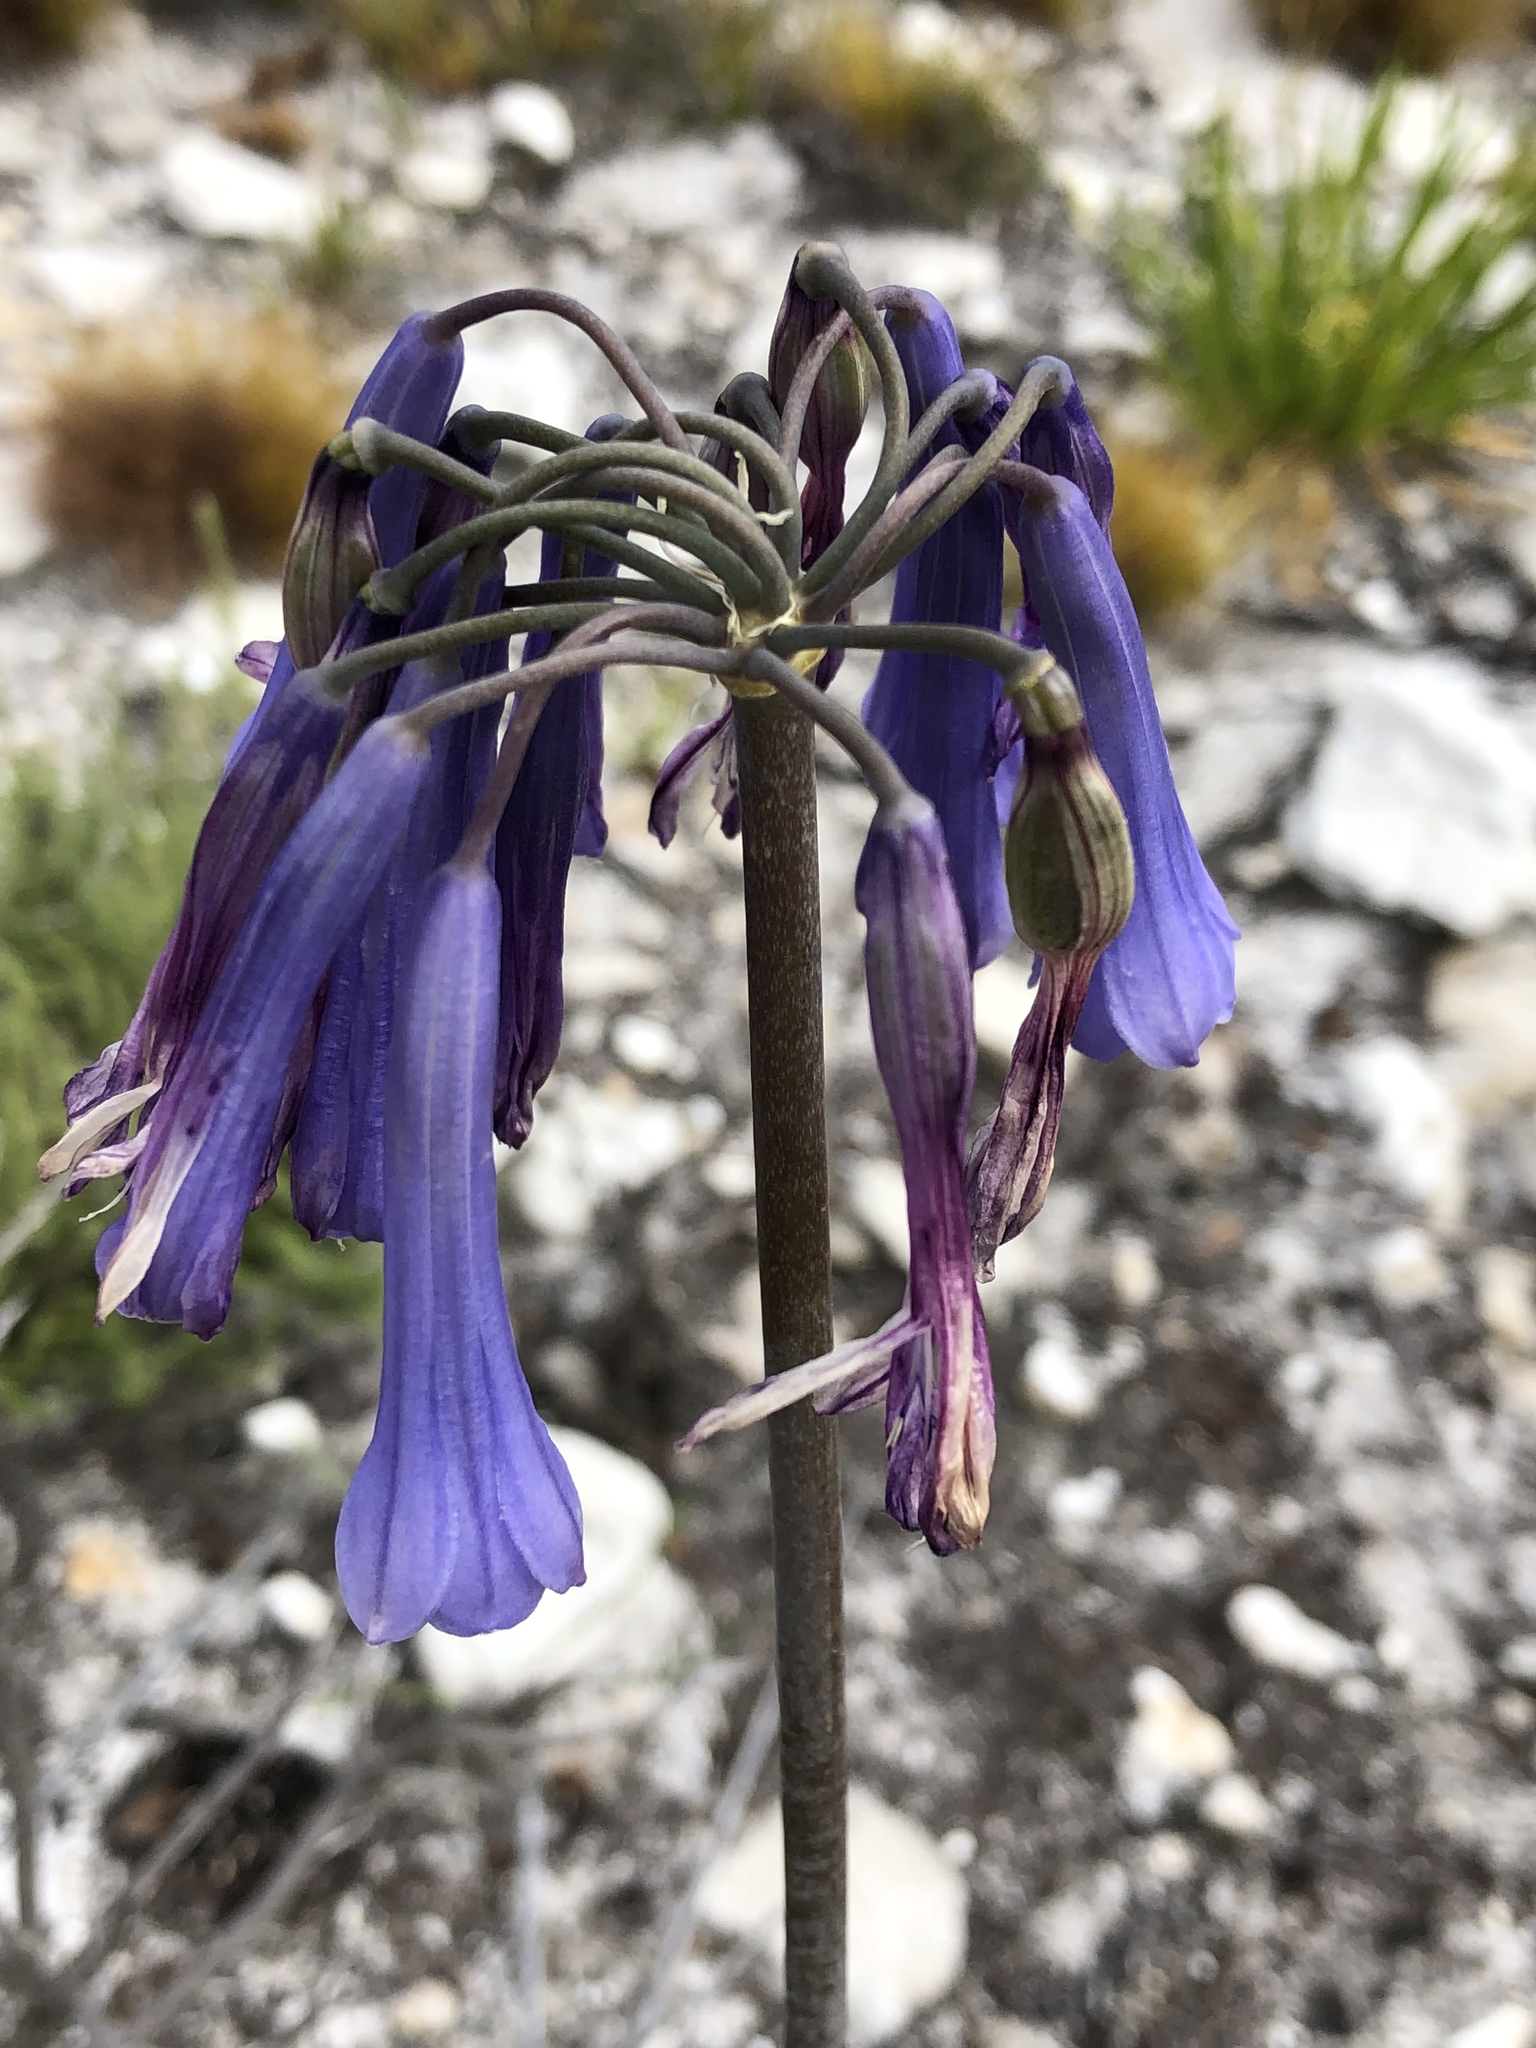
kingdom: Plantae
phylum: Tracheophyta
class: Liliopsida
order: Asparagales
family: Amaryllidaceae
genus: Agapanthus
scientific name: Agapanthus walshii
